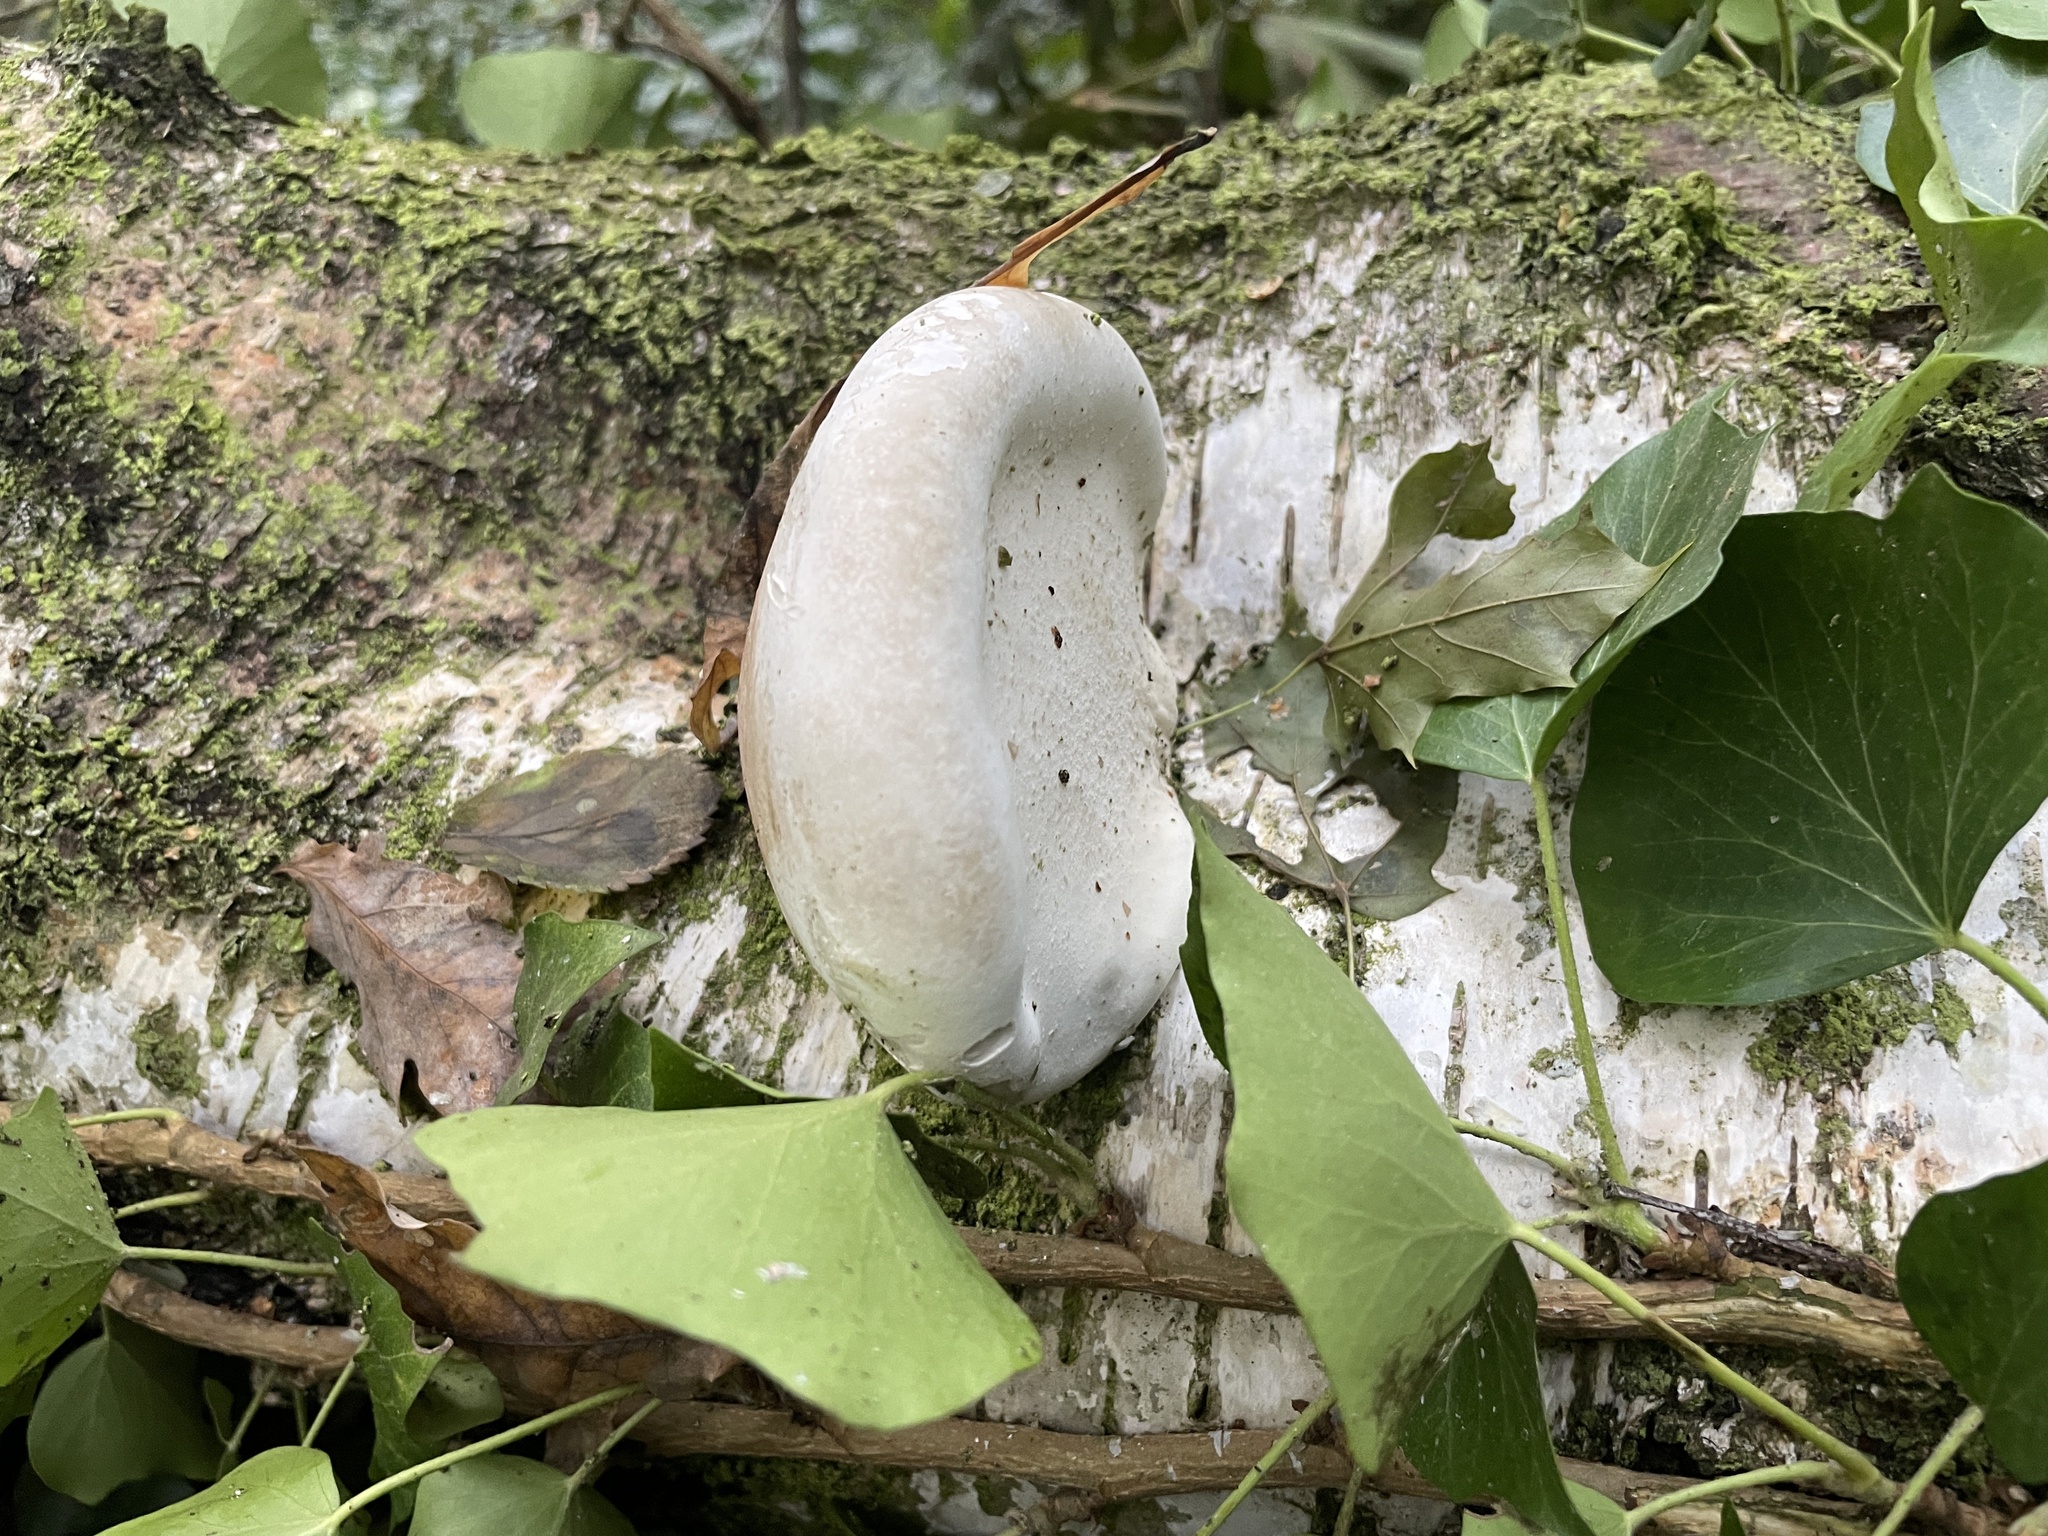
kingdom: Fungi
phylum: Basidiomycota
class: Agaricomycetes
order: Polyporales
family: Fomitopsidaceae
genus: Fomitopsis
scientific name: Fomitopsis betulina
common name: Birch polypore
